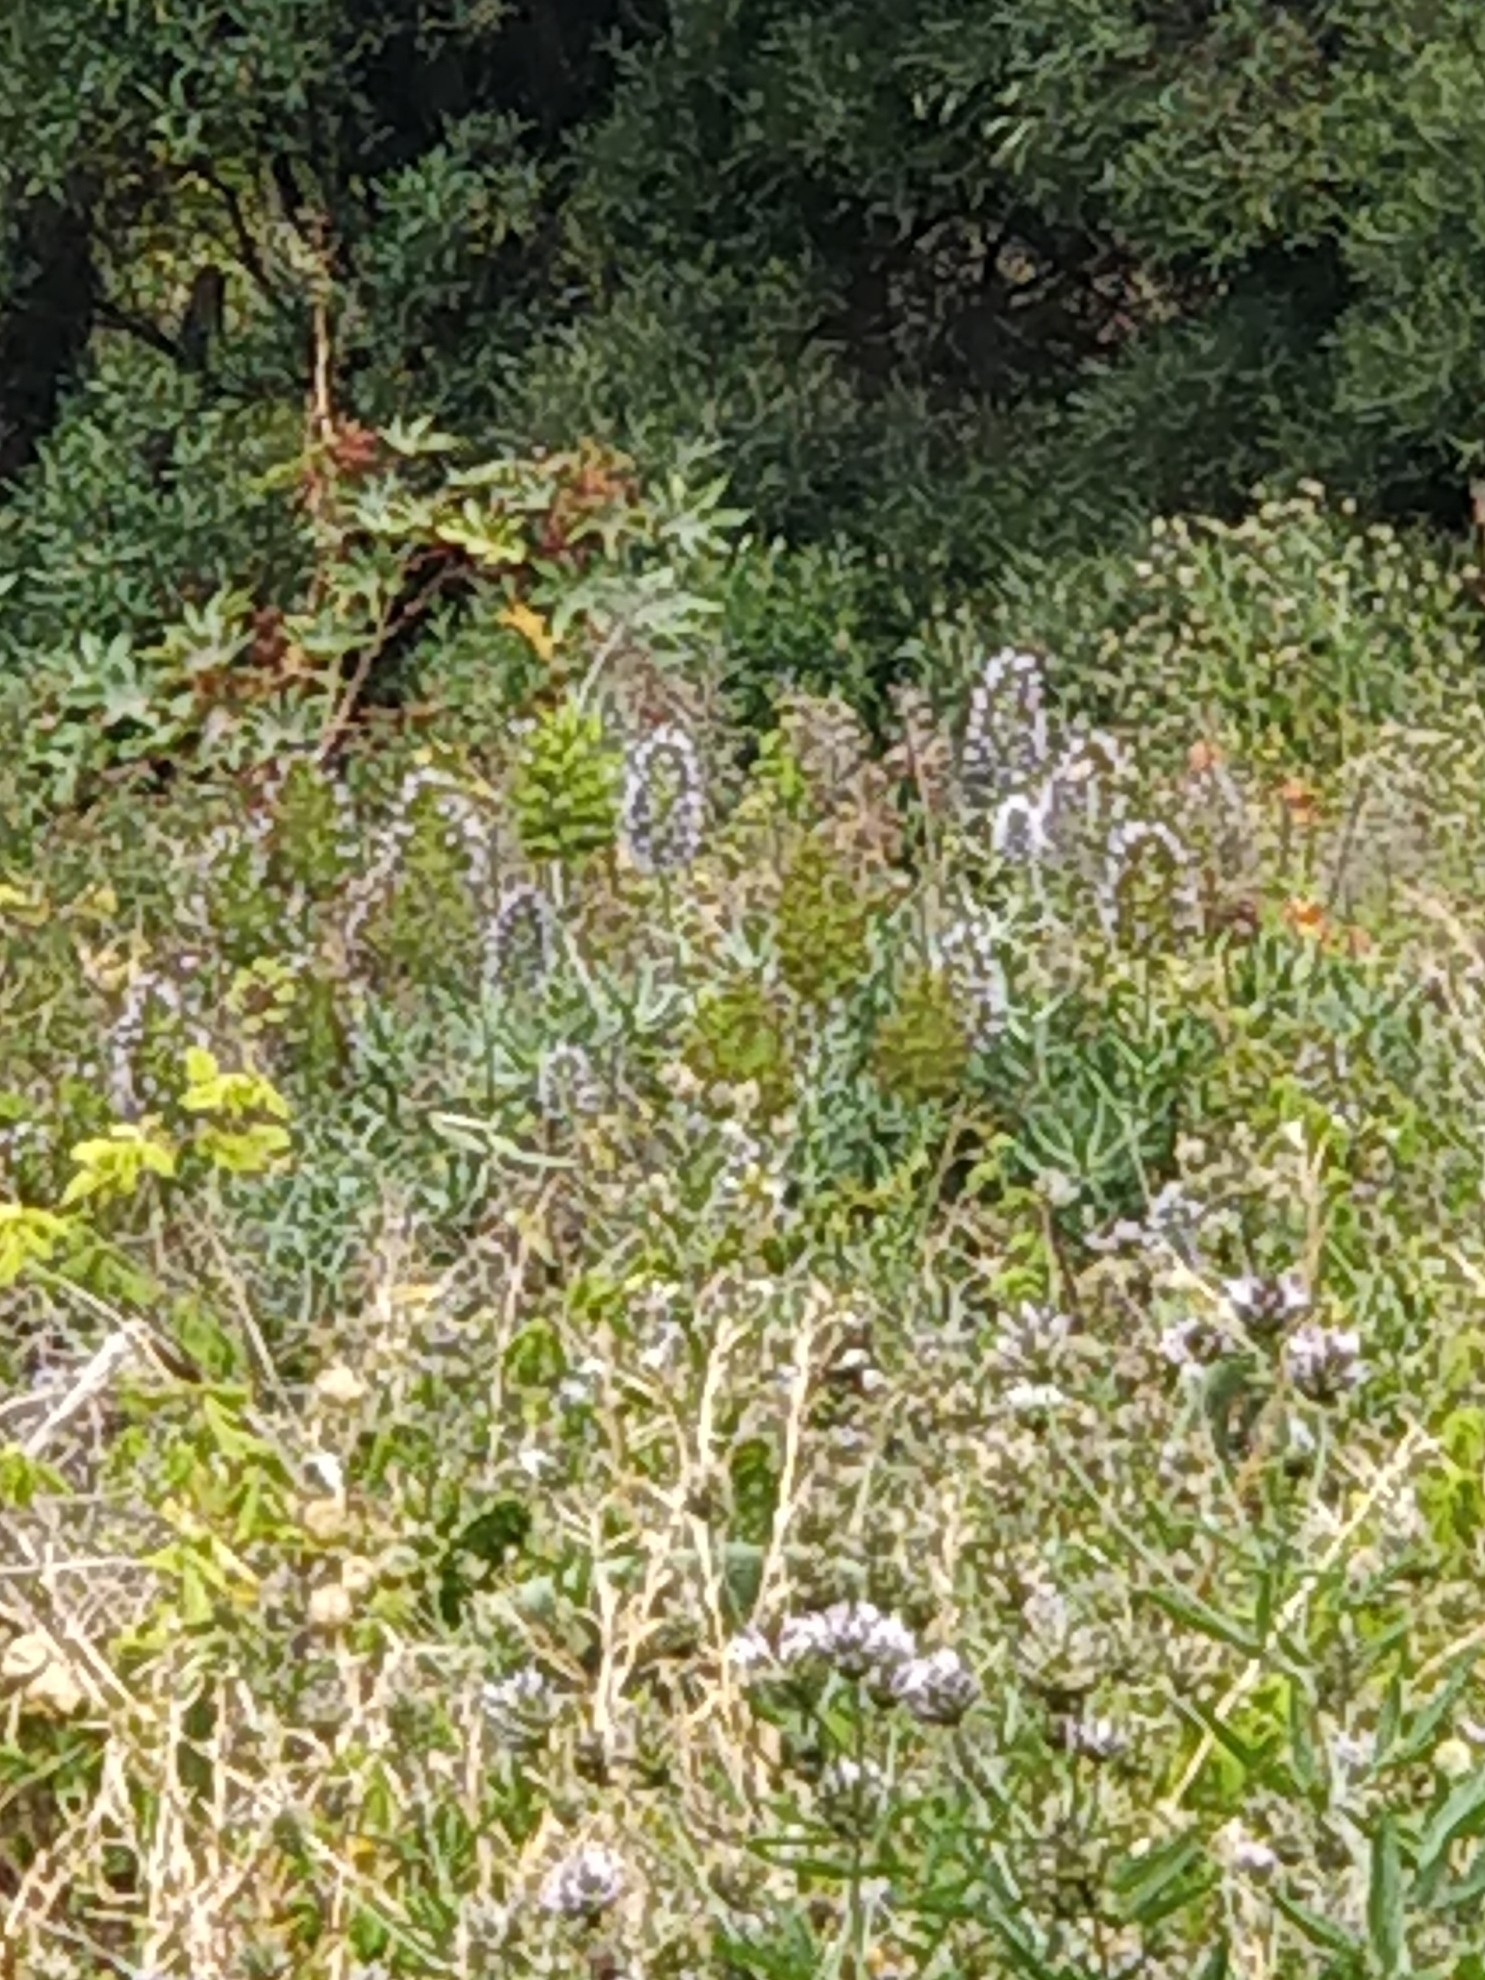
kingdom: Plantae
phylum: Tracheophyta
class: Magnoliopsida
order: Boraginales
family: Boraginaceae
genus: Echium
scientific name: Echium nervosum
